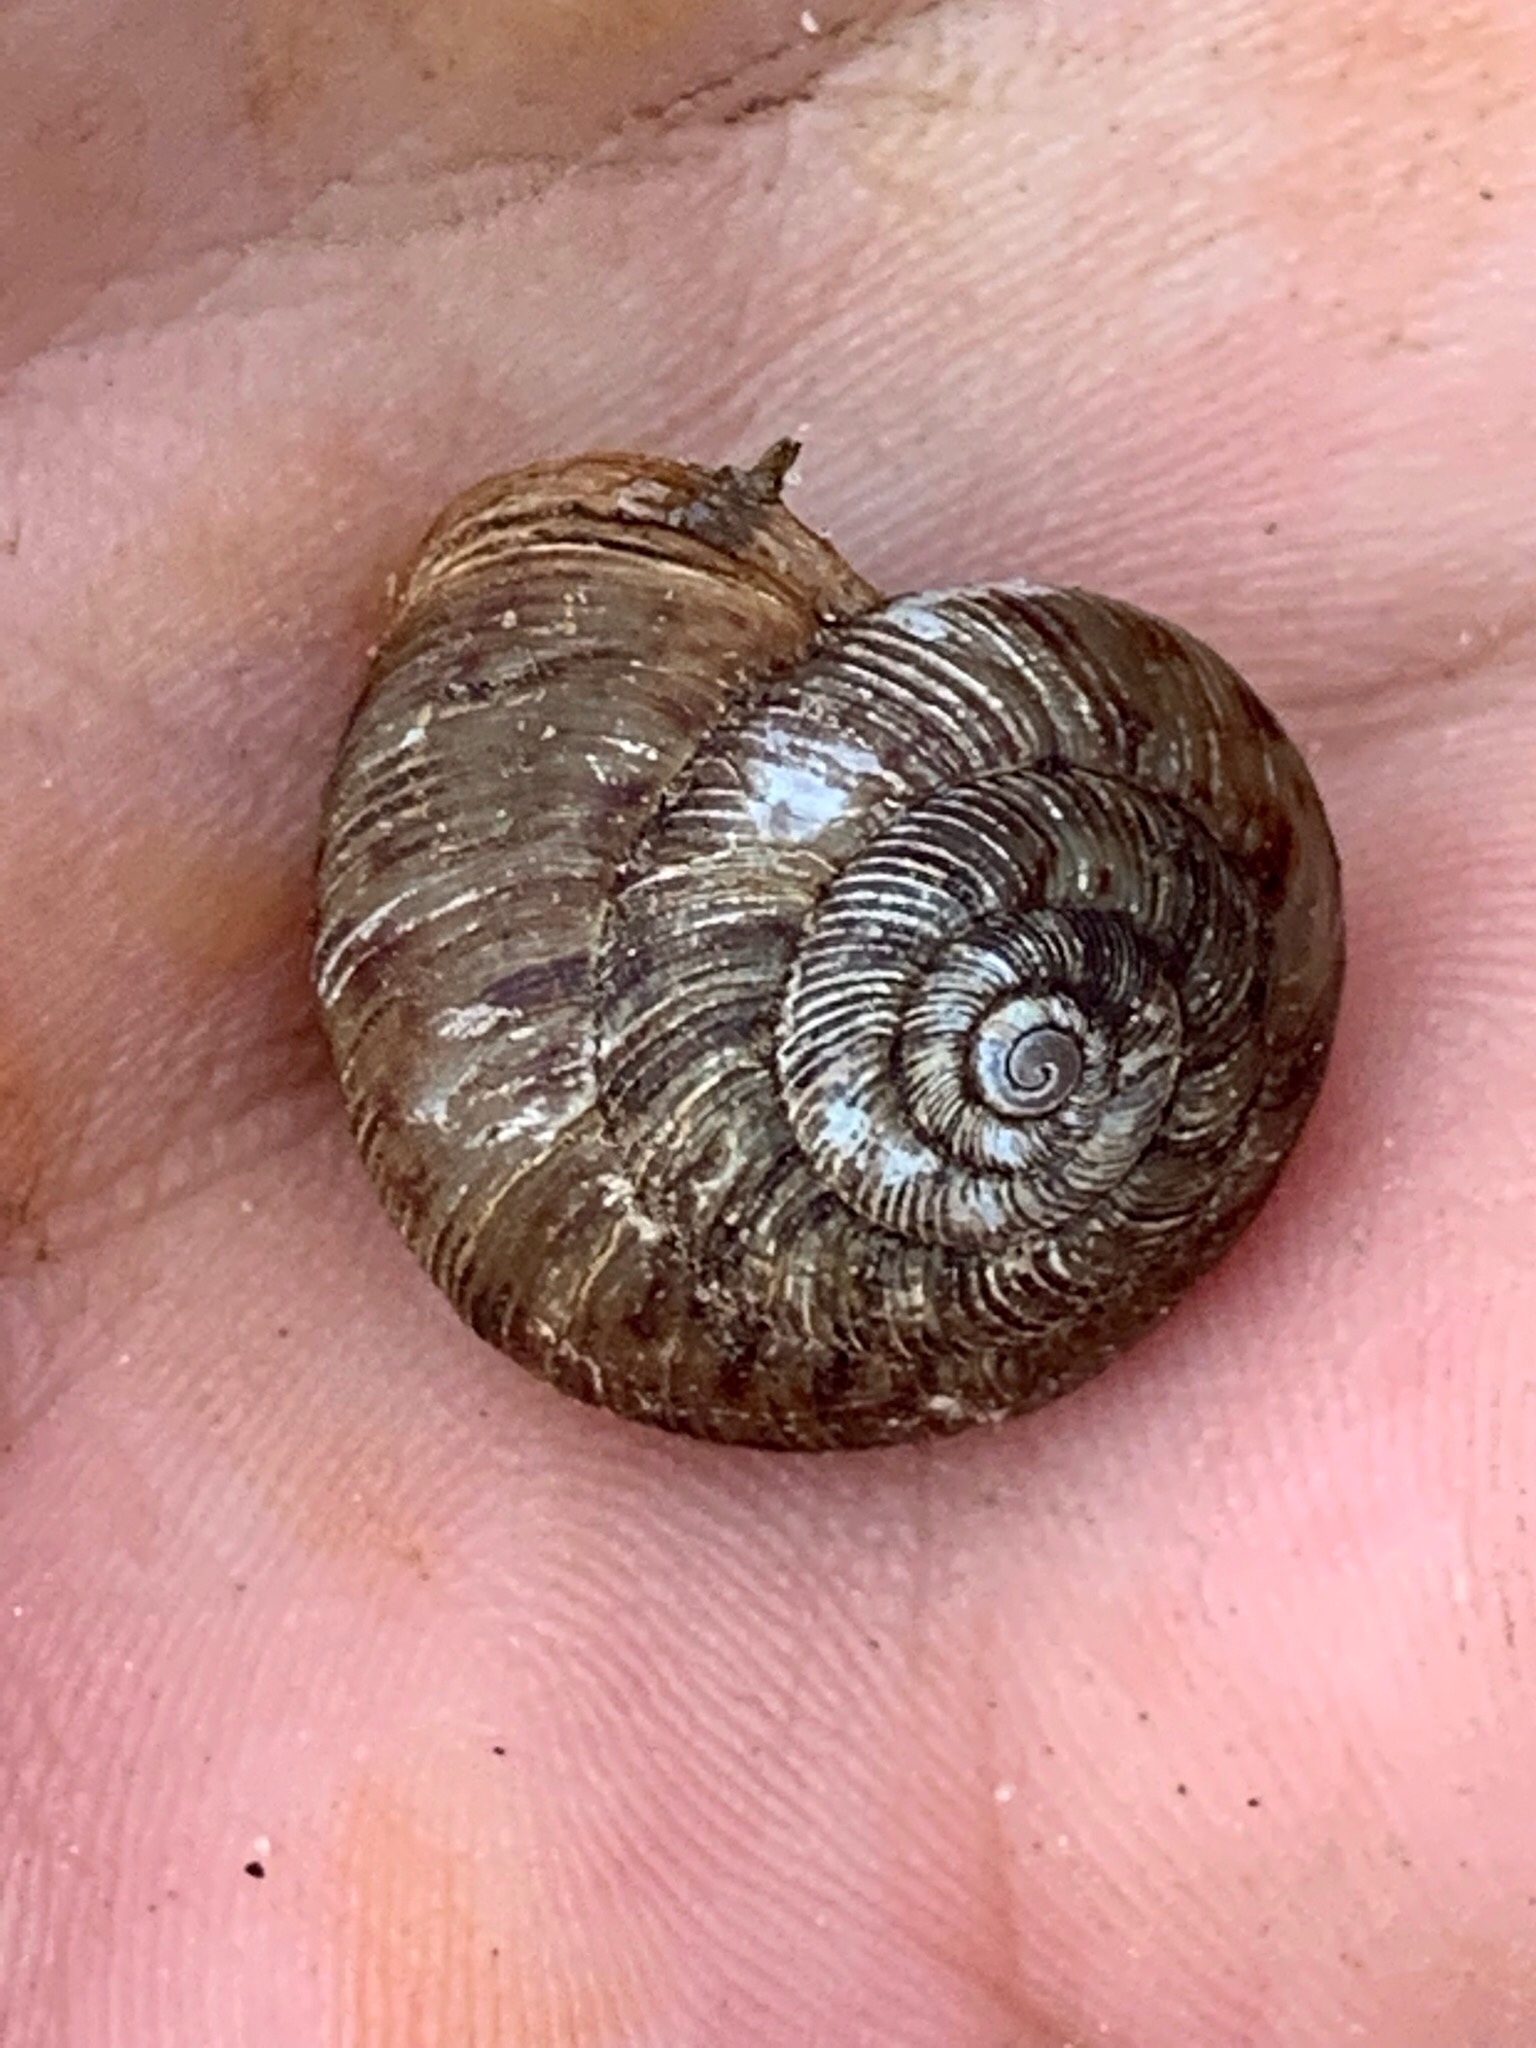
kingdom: Animalia
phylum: Mollusca
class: Gastropoda
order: Stylommatophora
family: Discidae
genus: Anguispira
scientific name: Anguispira alternata
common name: Flamed tigersnail
